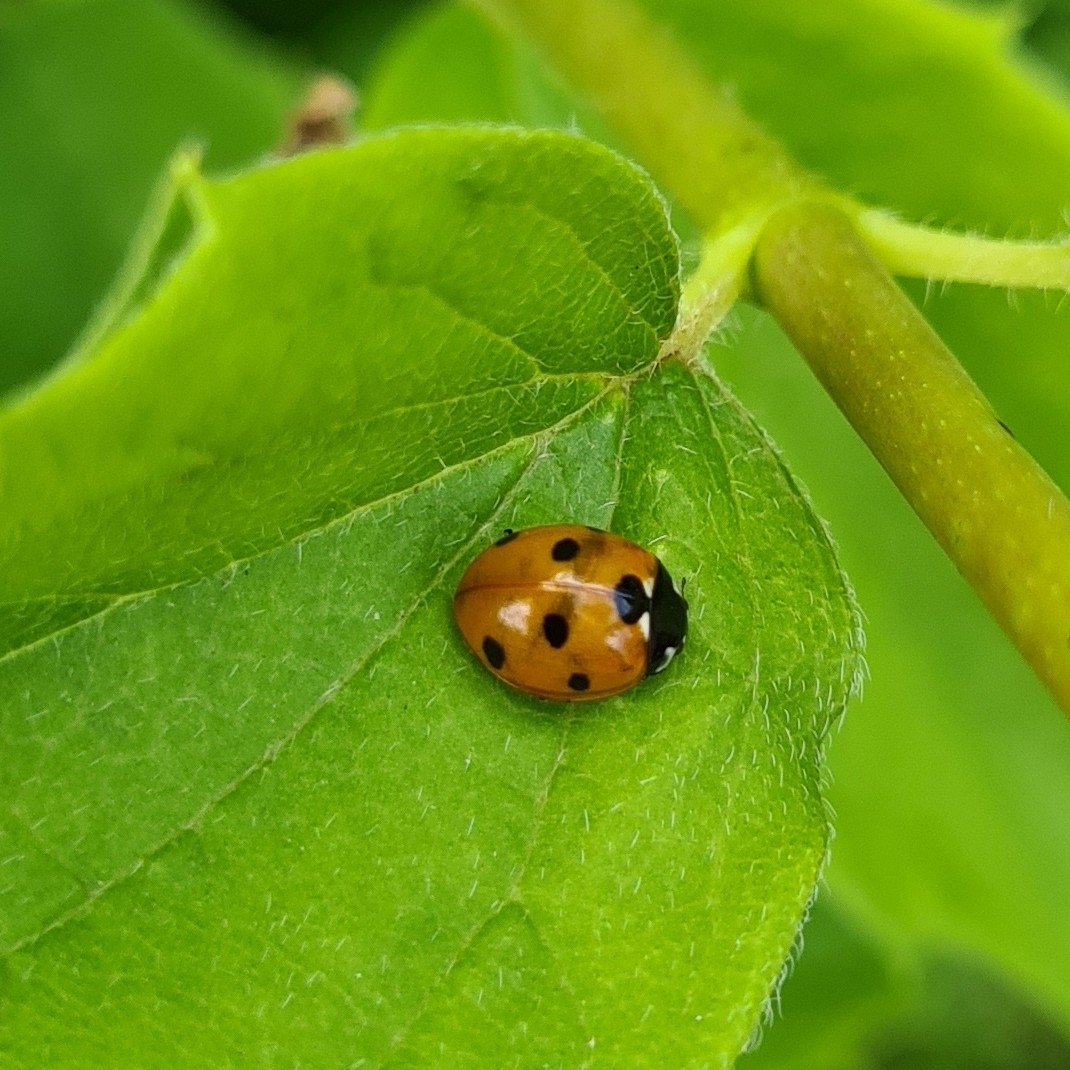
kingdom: Animalia
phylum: Arthropoda
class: Insecta
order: Coleoptera
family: Coccinellidae
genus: Coccinella
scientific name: Coccinella septempunctata
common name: Sevenspotted lady beetle
